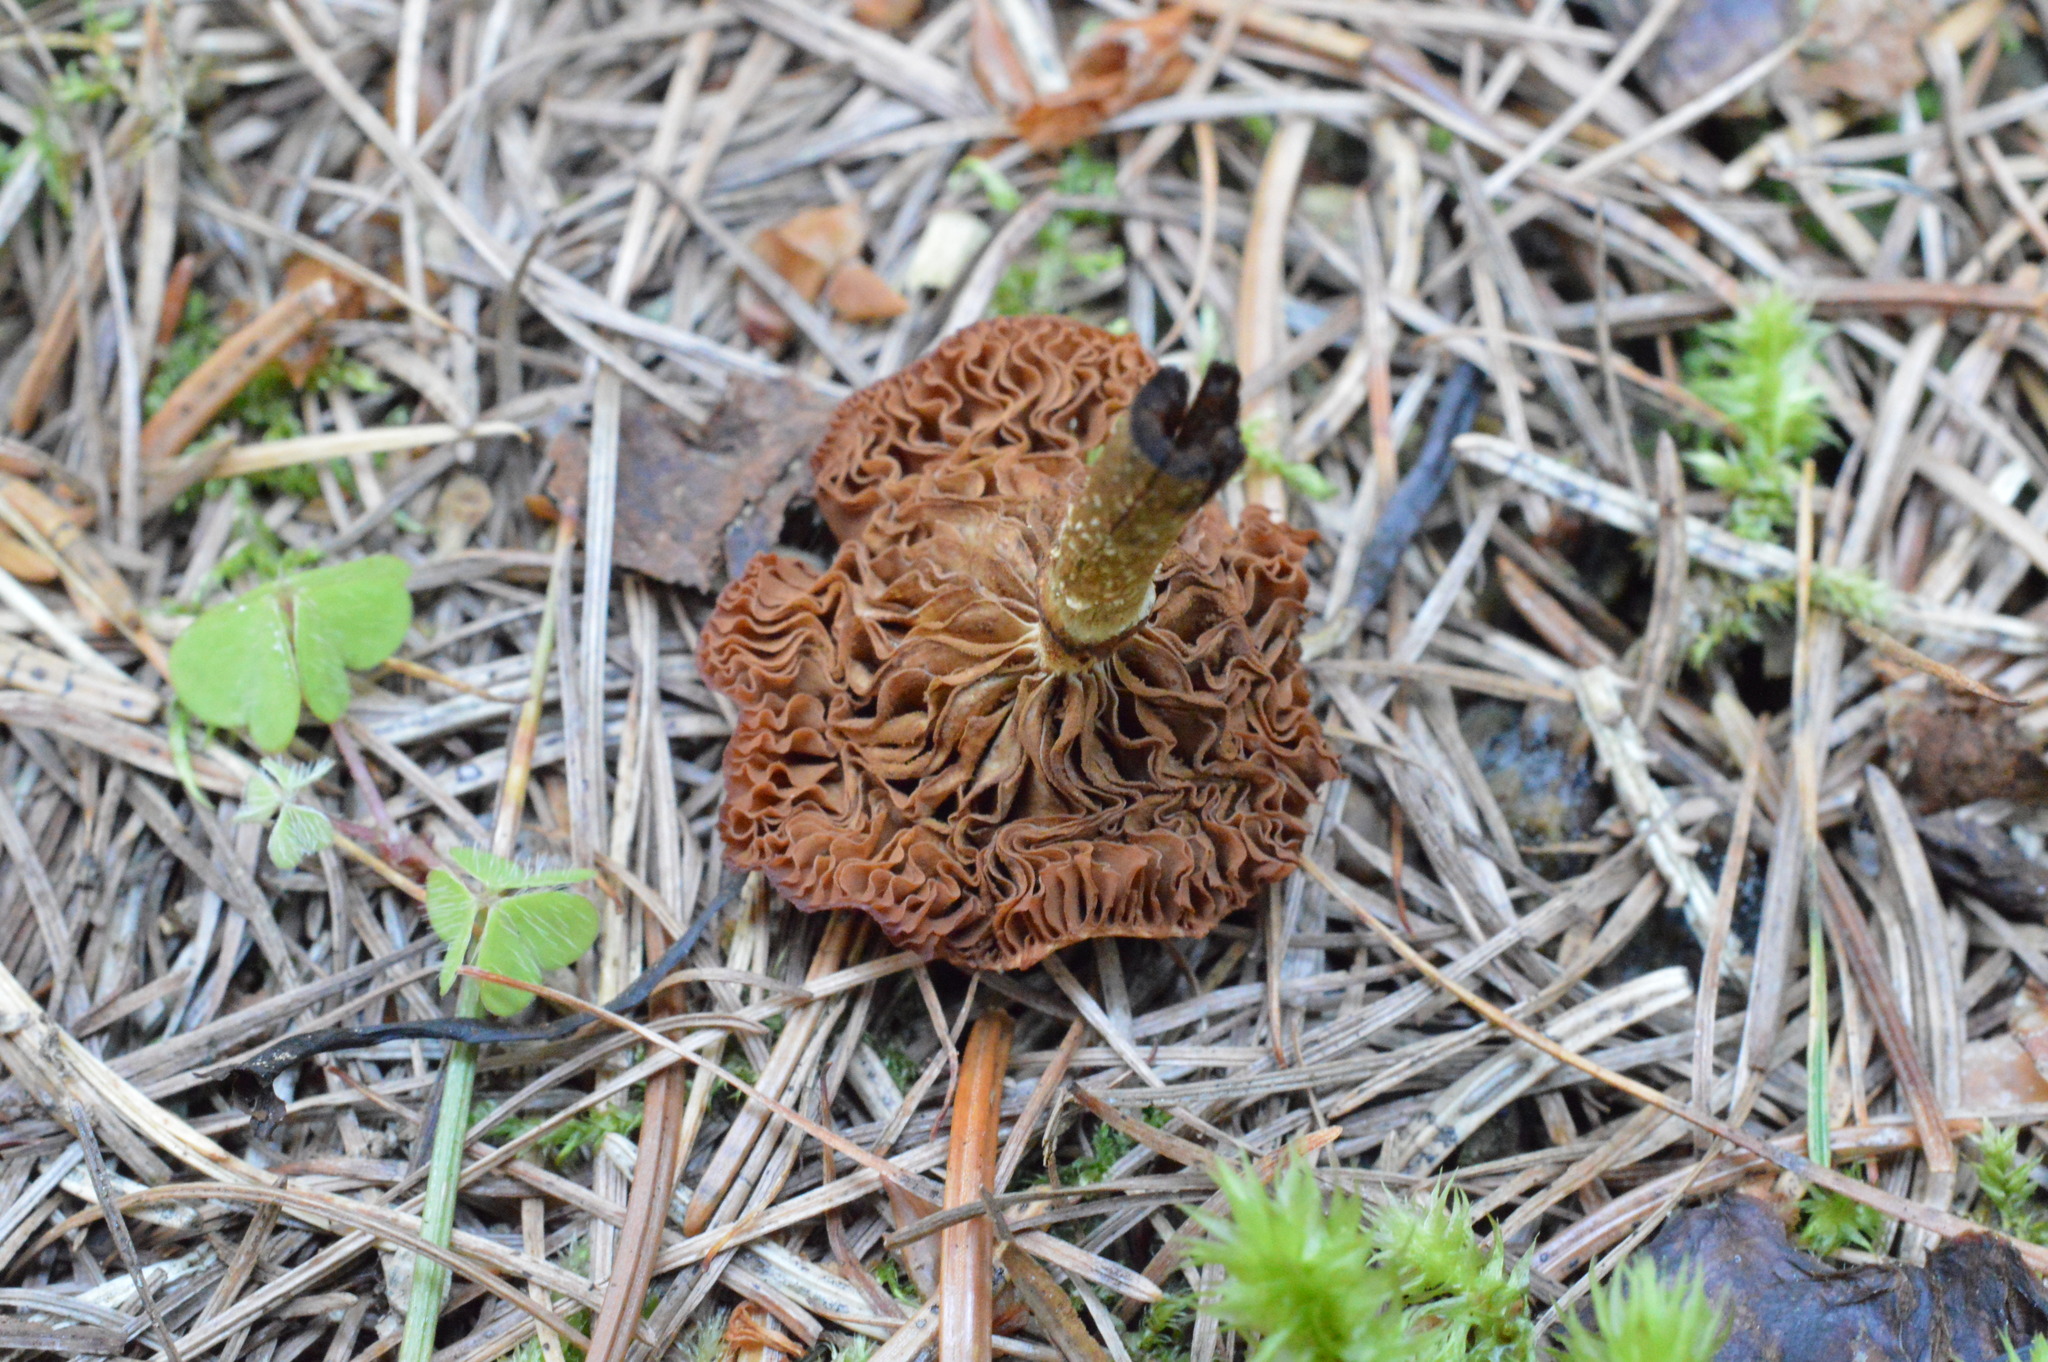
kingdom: Fungi
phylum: Basidiomycota
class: Agaricomycetes
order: Agaricales
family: Strophariaceae
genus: Kuehneromyces
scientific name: Kuehneromyces mutabilis
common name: Sheathed woodtuft
